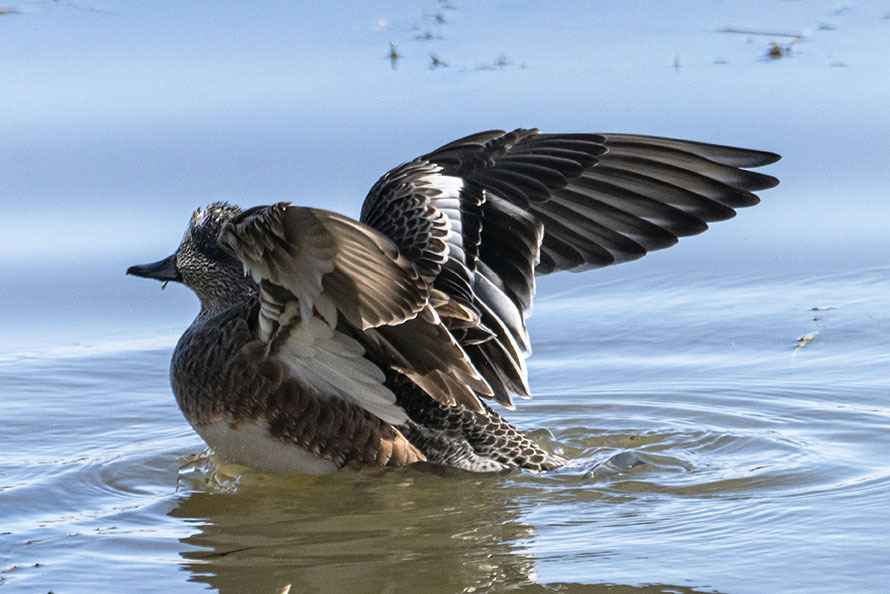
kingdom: Animalia
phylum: Chordata
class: Aves
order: Anseriformes
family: Anatidae
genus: Mareca
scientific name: Mareca americana
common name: American wigeon
